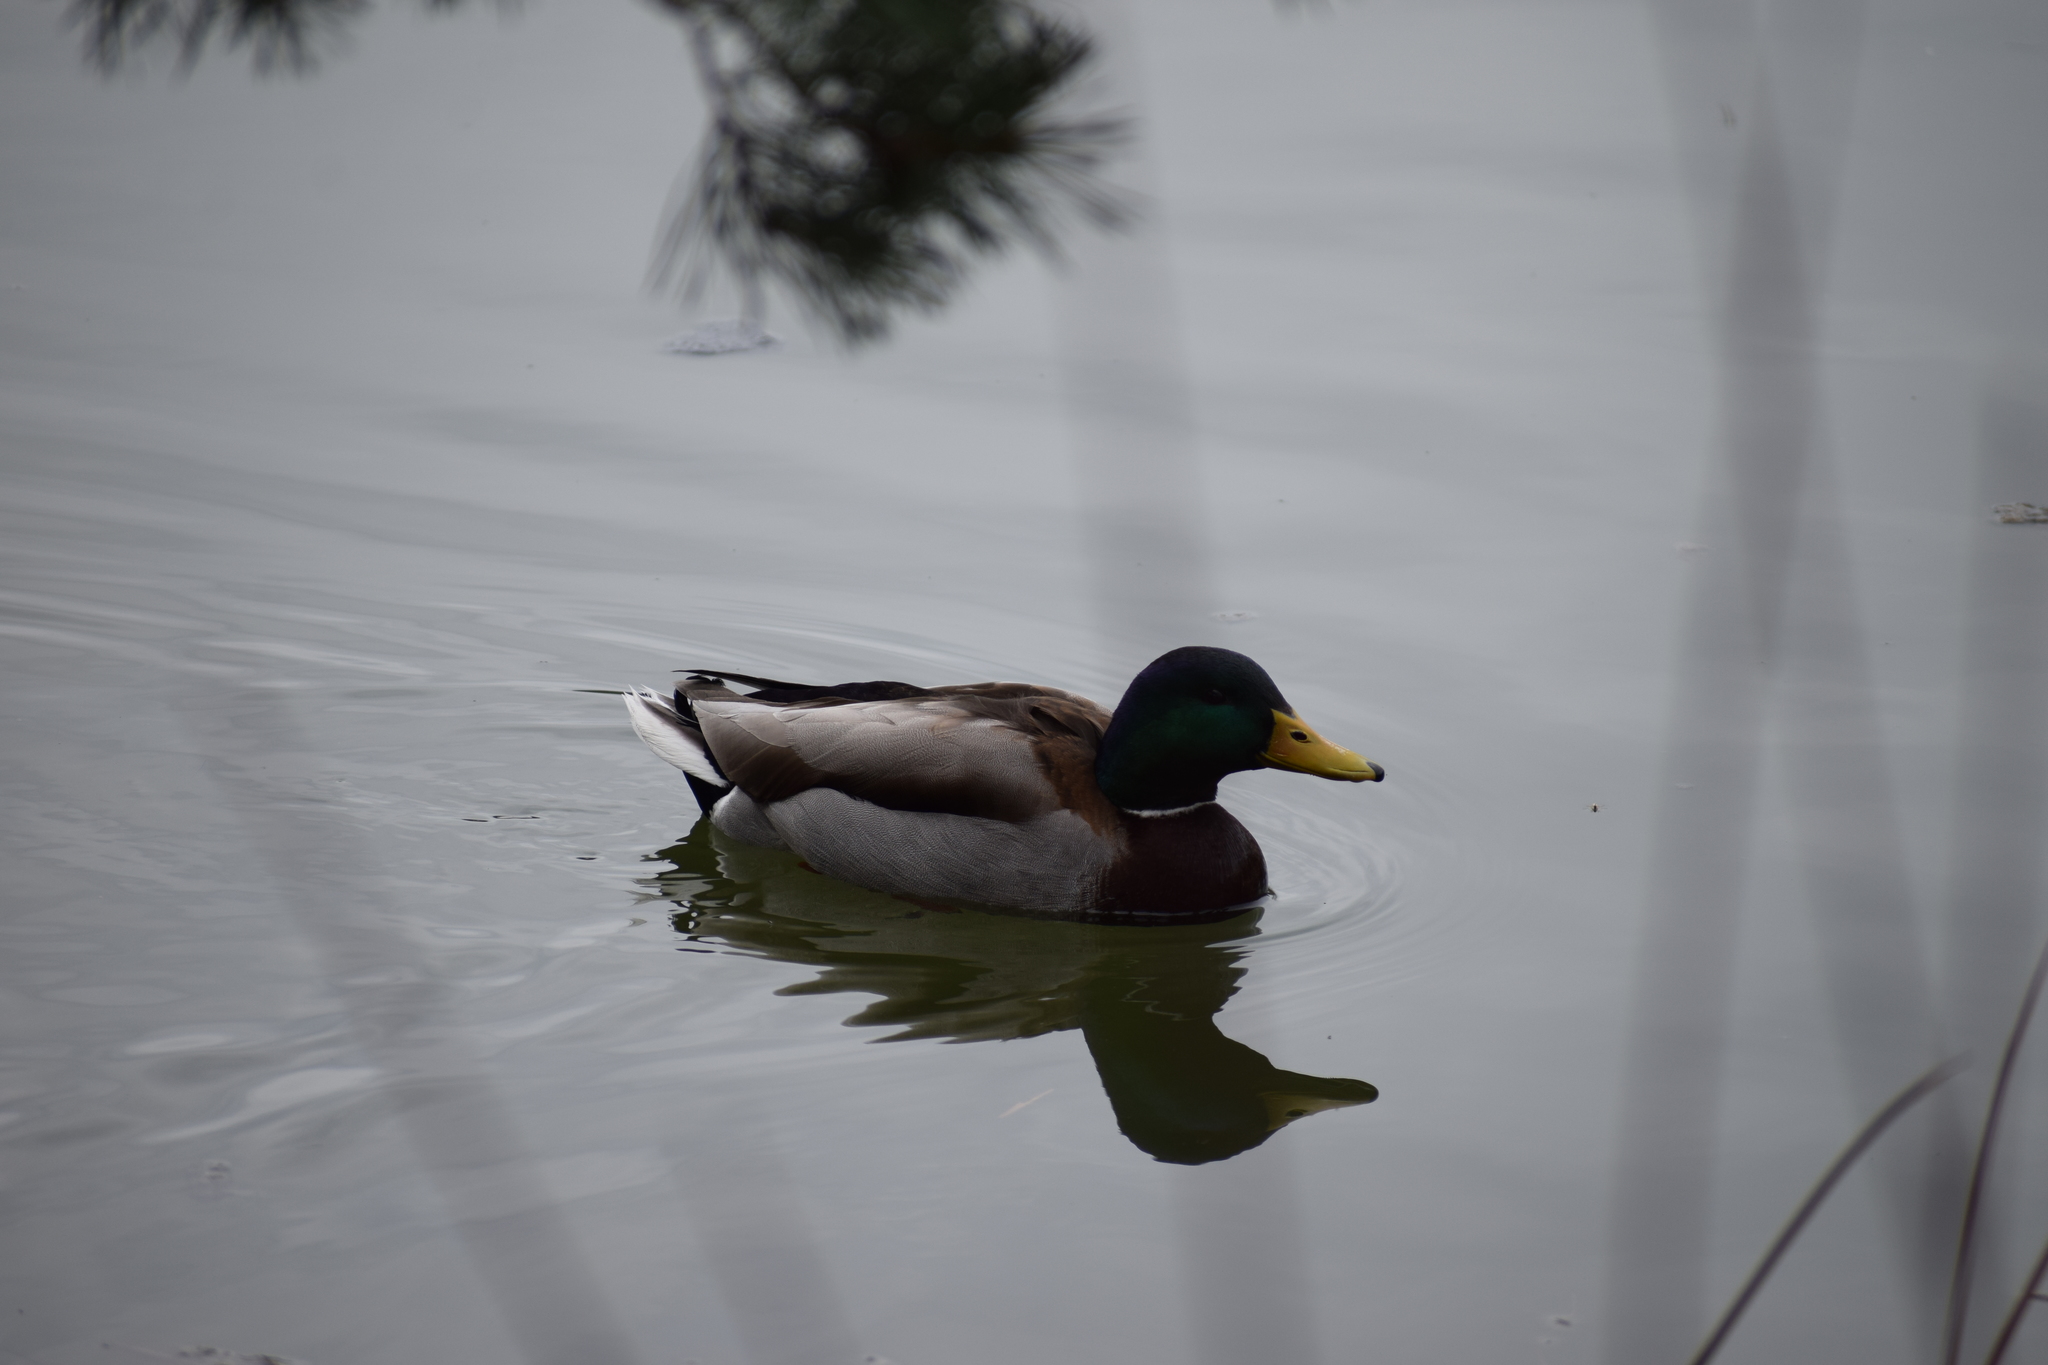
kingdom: Animalia
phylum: Chordata
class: Aves
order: Anseriformes
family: Anatidae
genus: Anas
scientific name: Anas platyrhynchos
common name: Mallard
